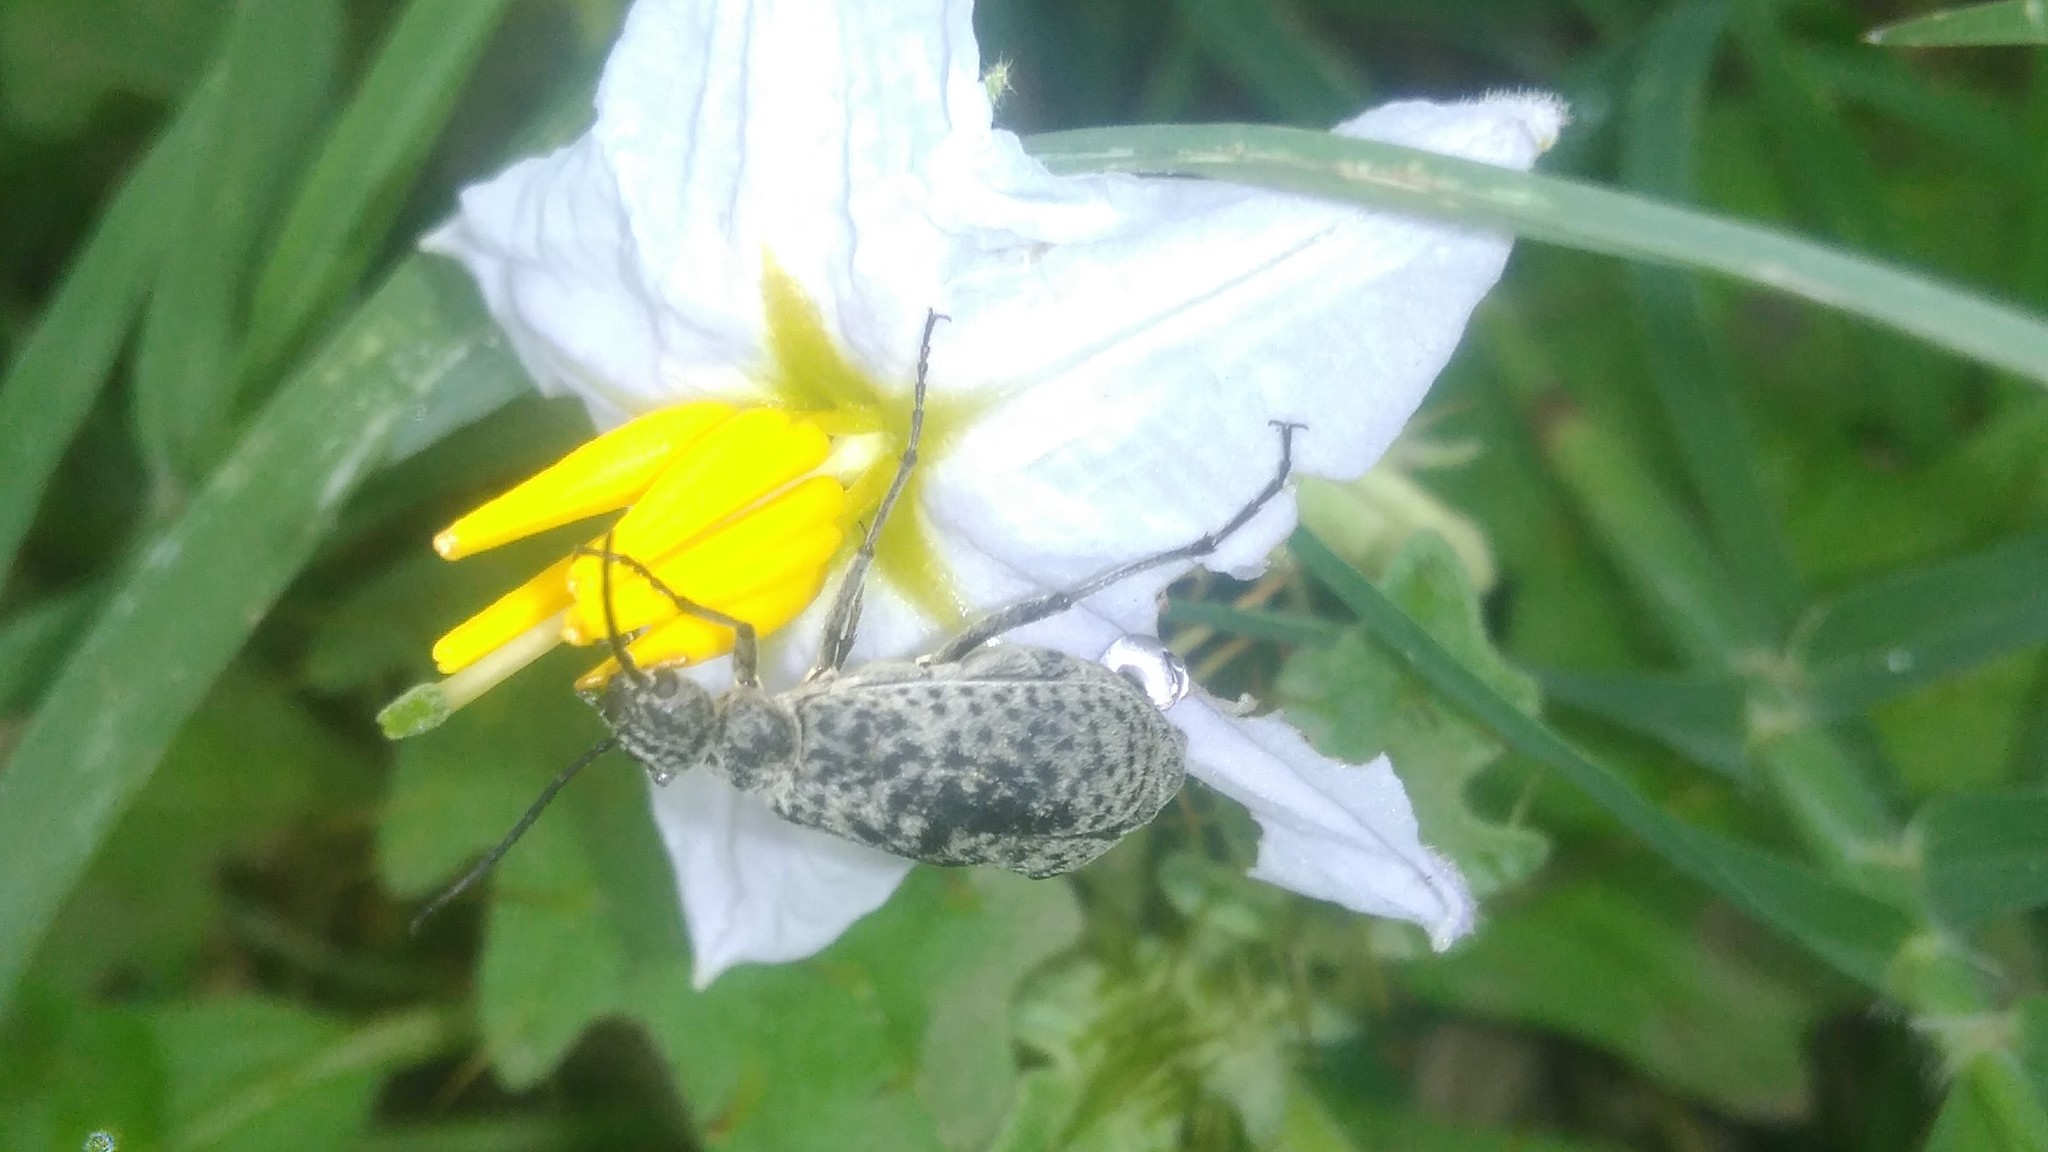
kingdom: Animalia
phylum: Arthropoda
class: Insecta
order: Coleoptera
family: Meloidae
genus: Epicauta
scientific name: Epicauta
